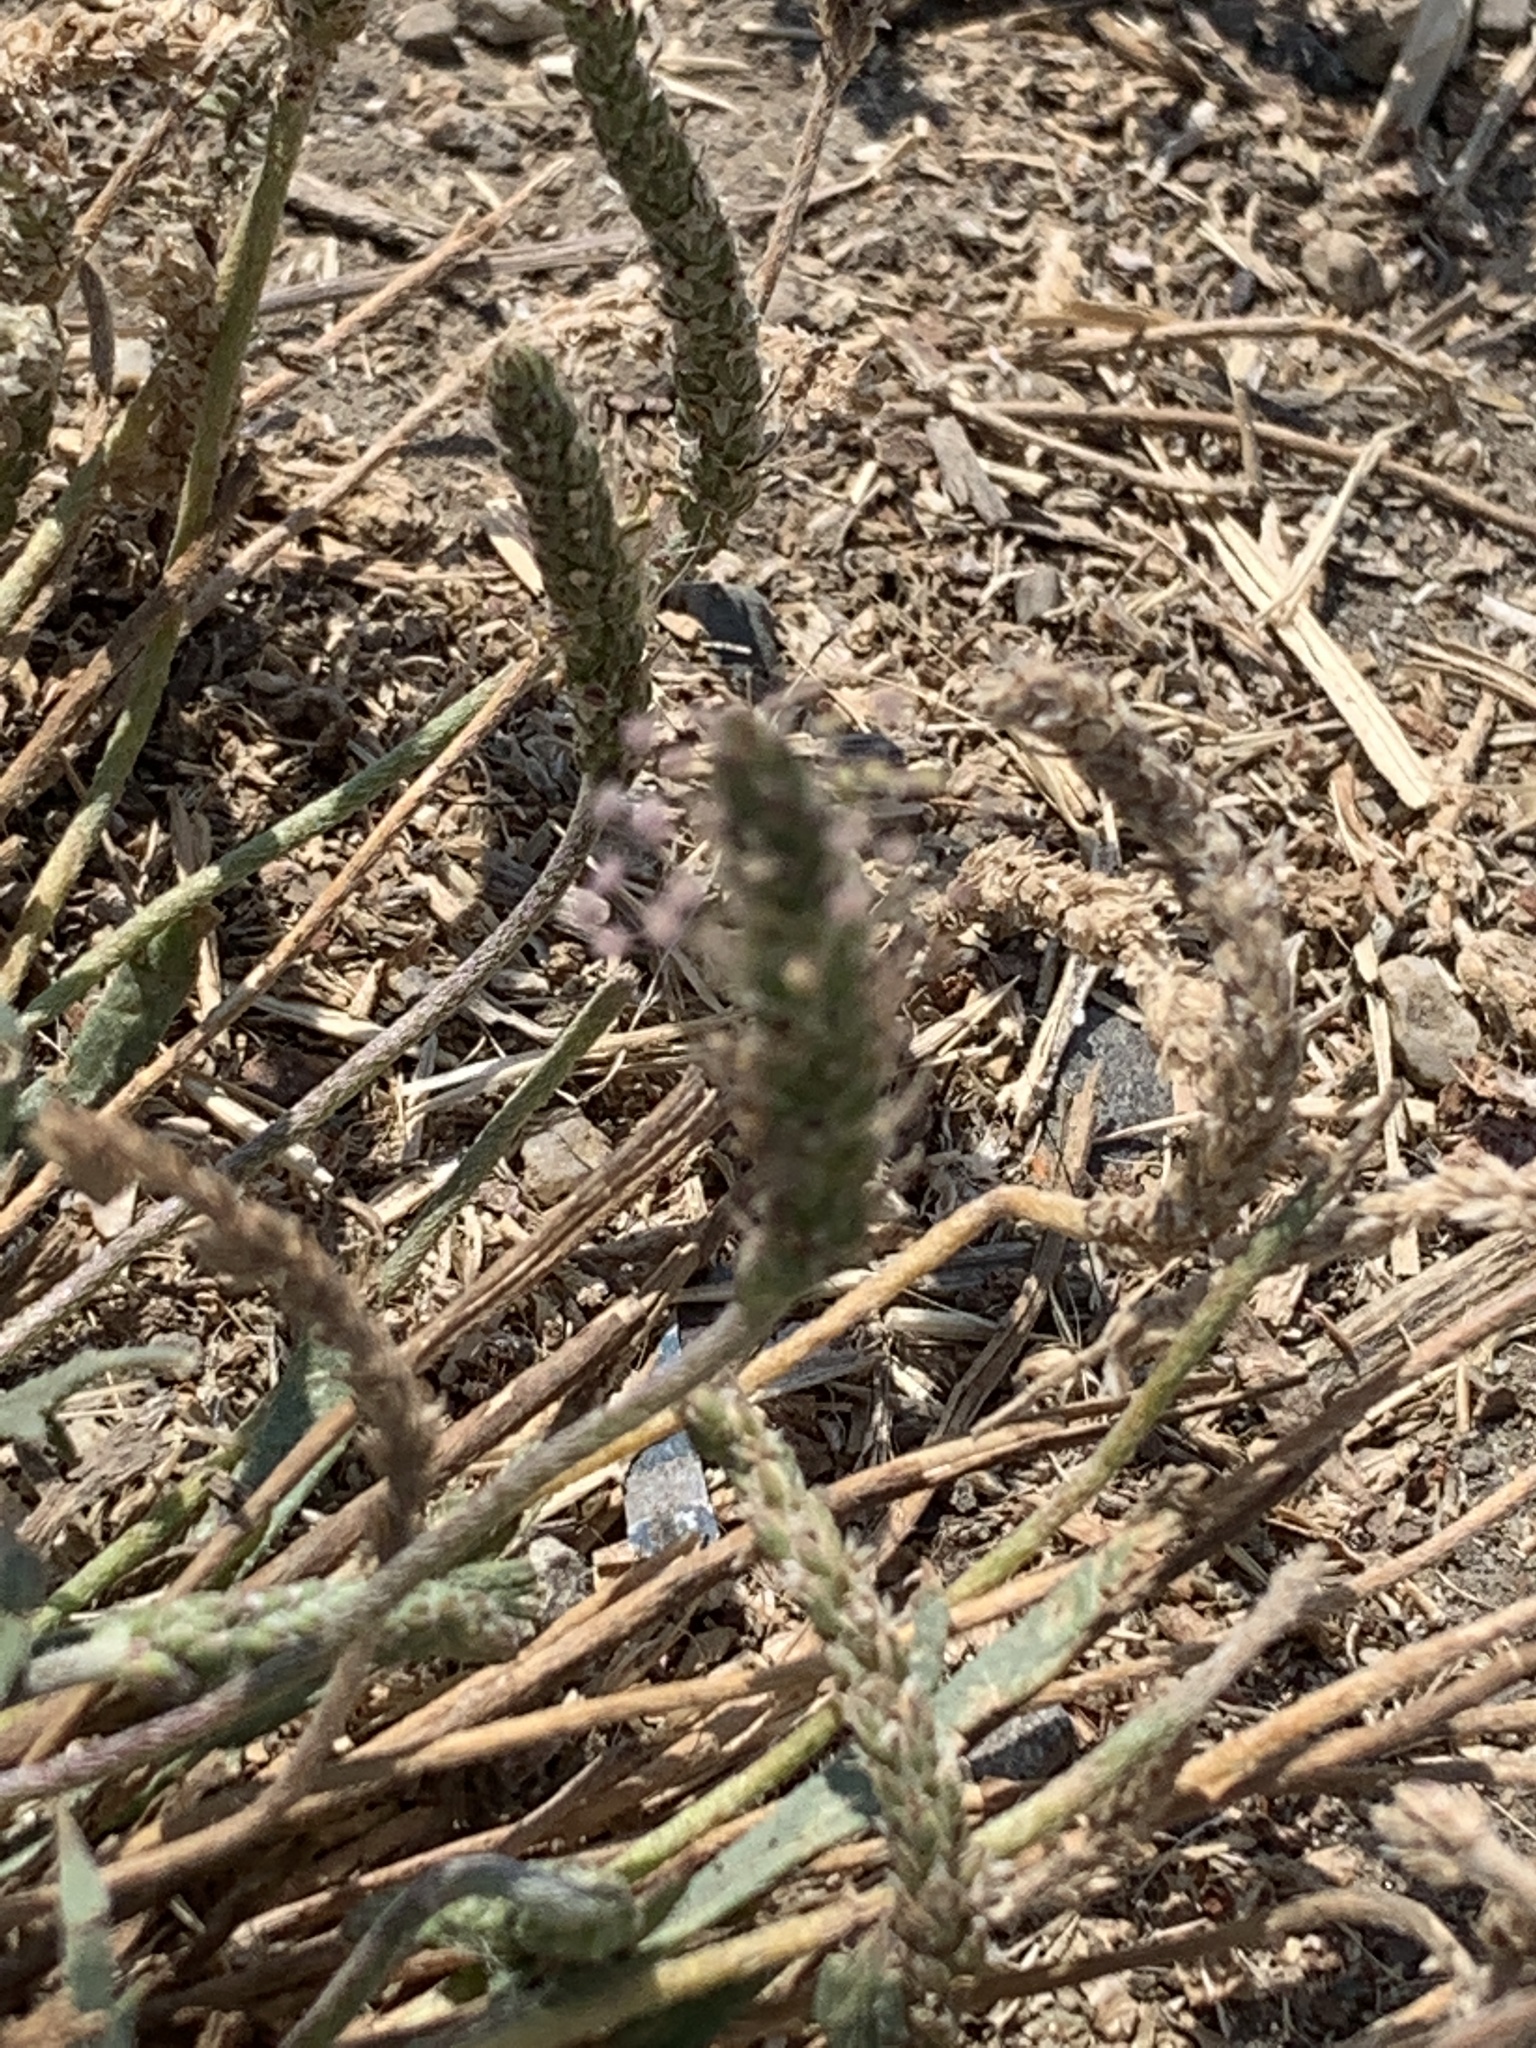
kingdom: Plantae
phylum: Tracheophyta
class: Magnoliopsida
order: Lamiales
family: Plantaginaceae
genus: Plantago
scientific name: Plantago coronopus
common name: Buck's-horn plantain
